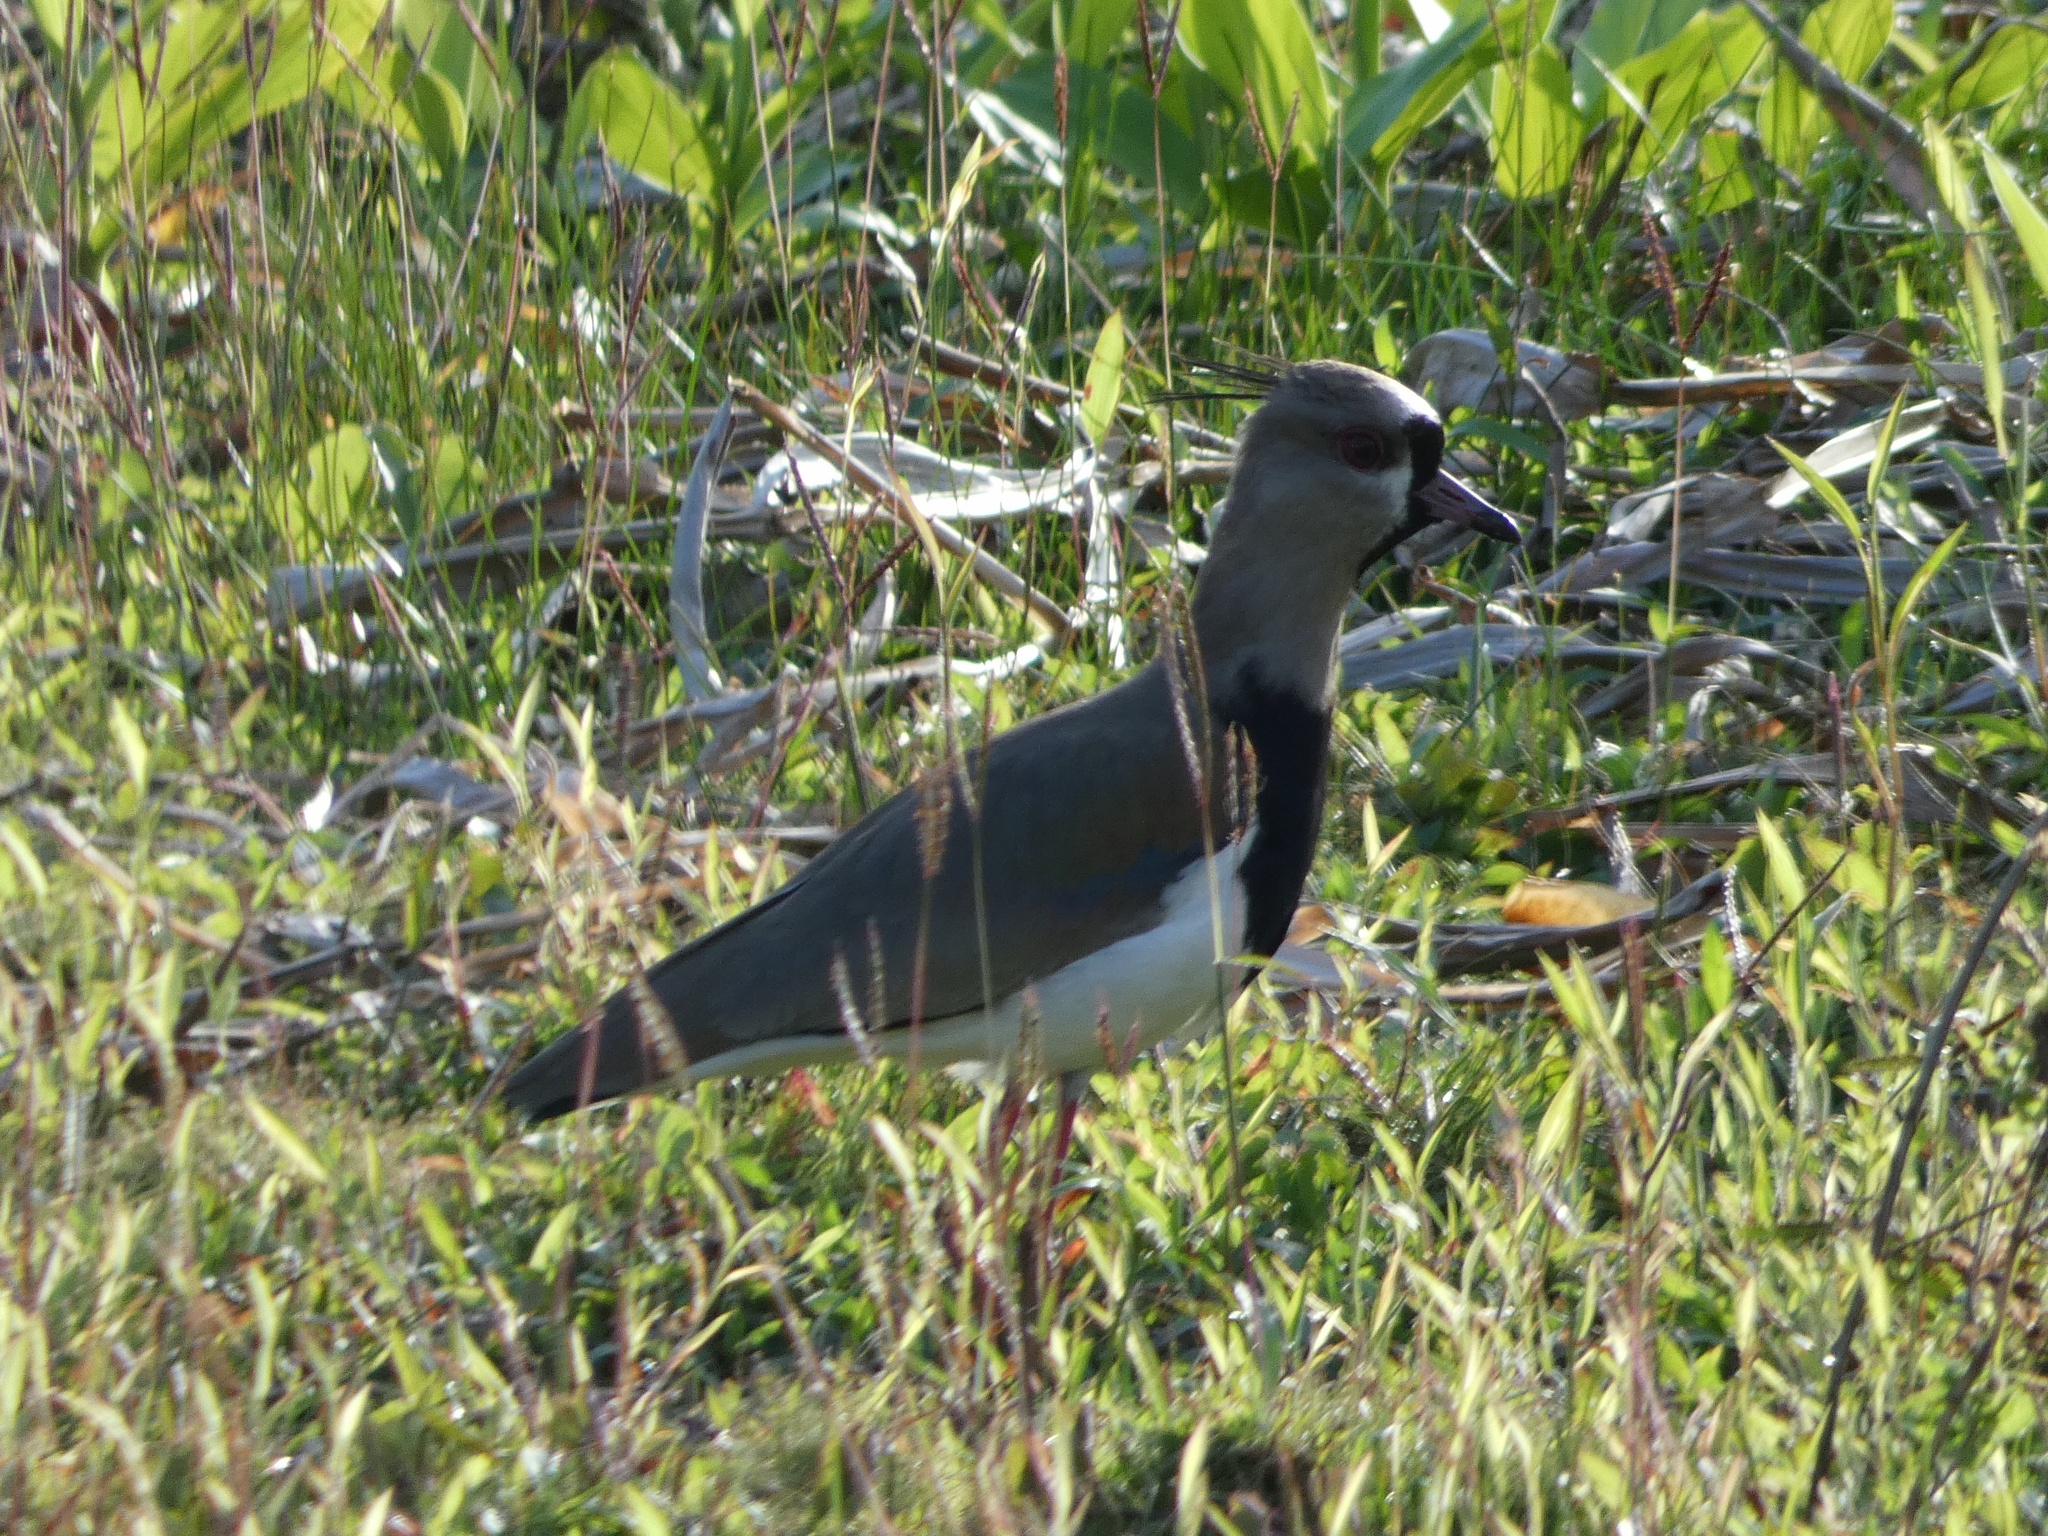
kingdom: Animalia
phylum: Chordata
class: Aves
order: Charadriiformes
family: Charadriidae
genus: Vanellus
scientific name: Vanellus chilensis
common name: Southern lapwing
